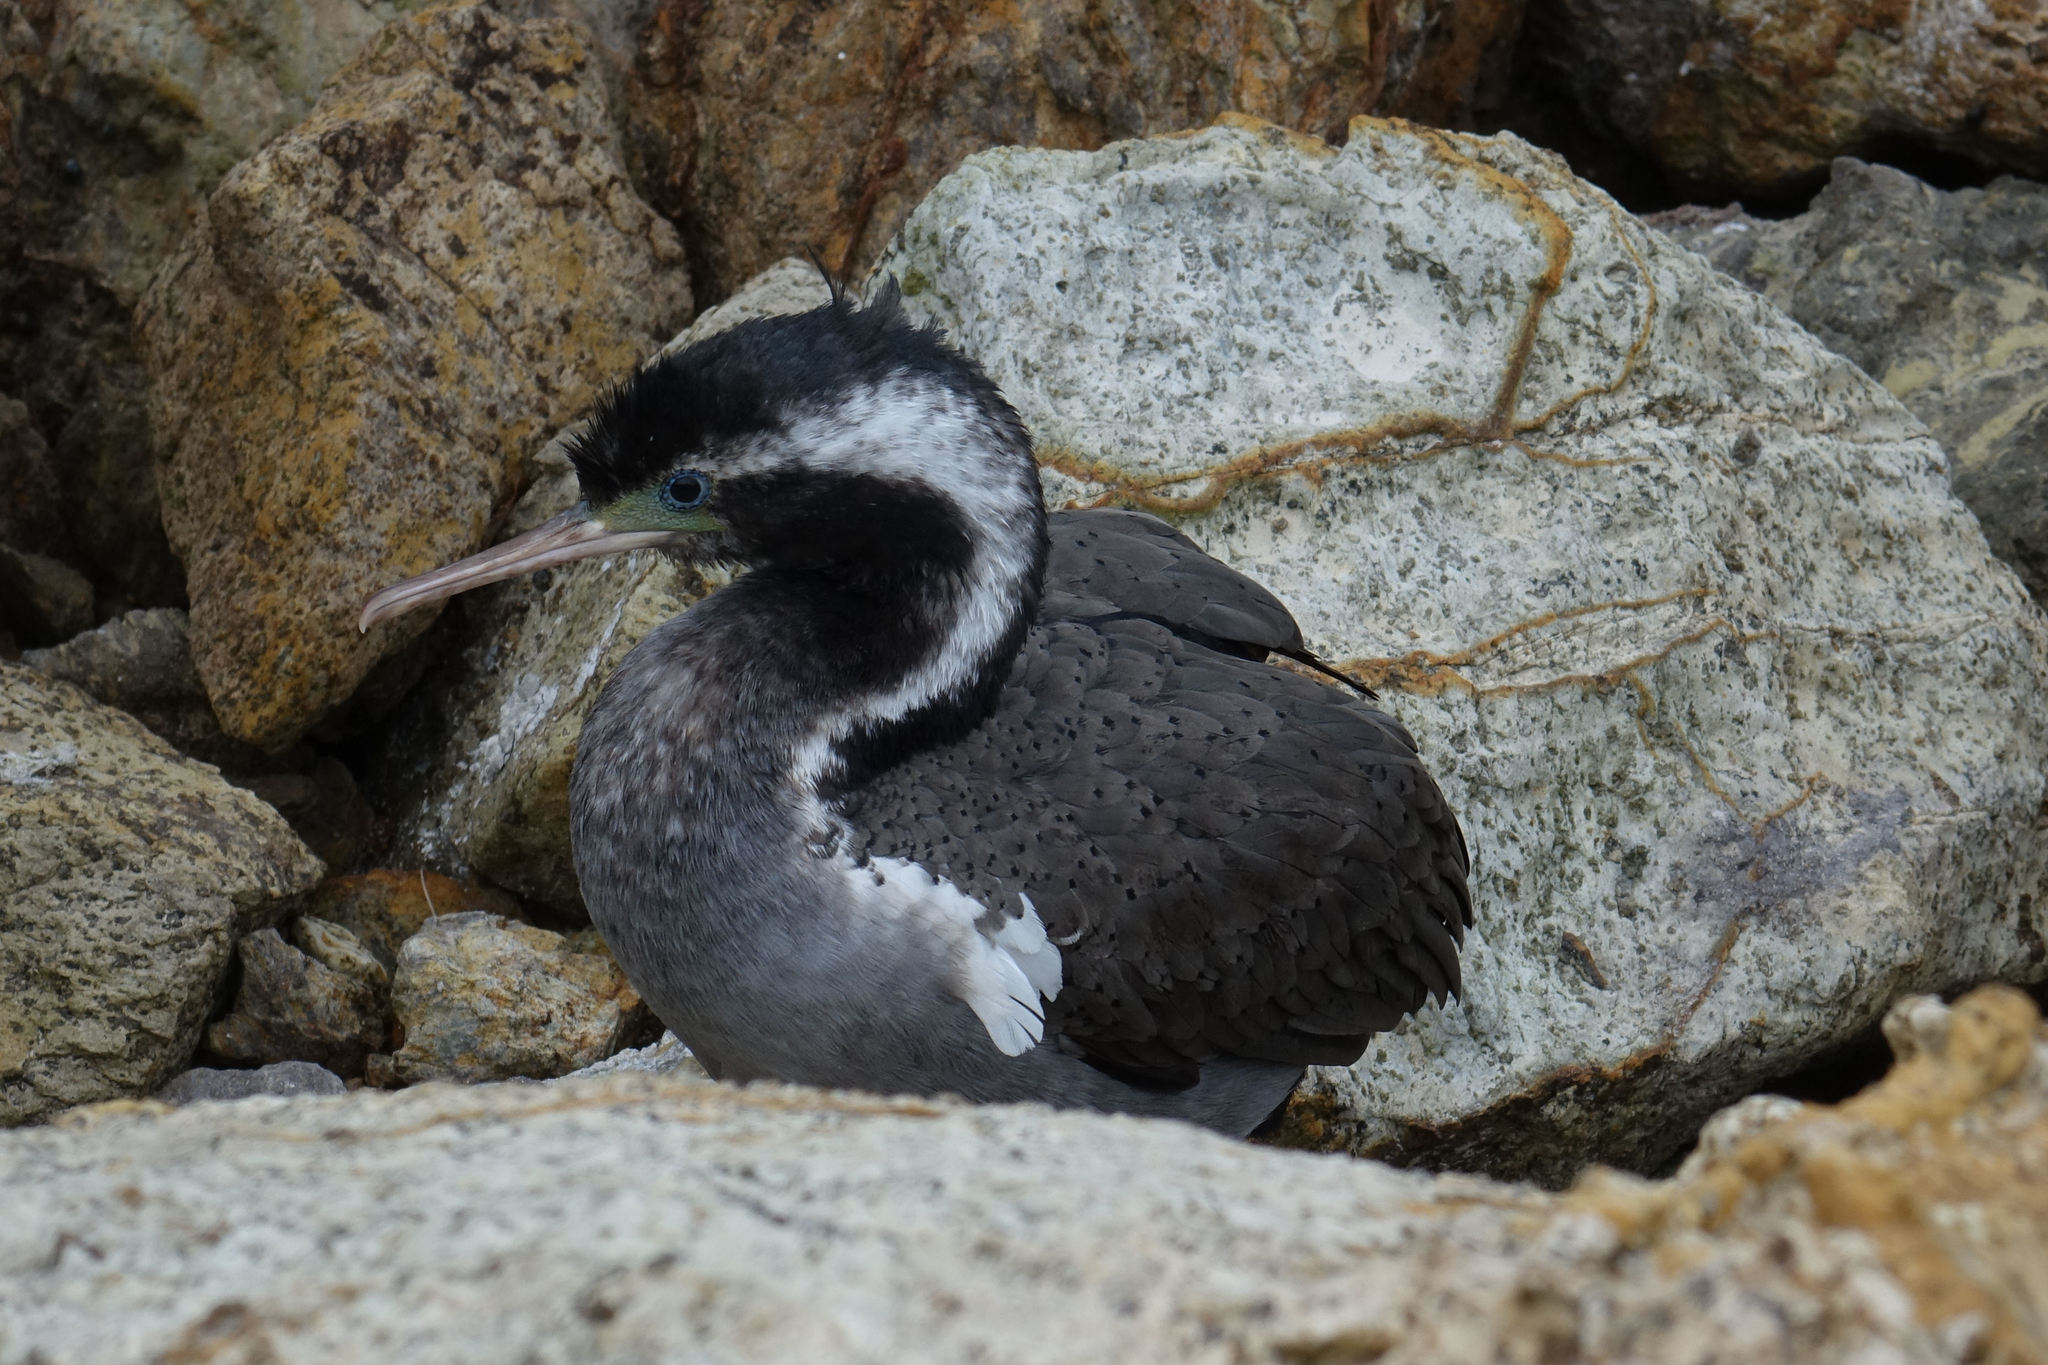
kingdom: Animalia
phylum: Chordata
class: Aves
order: Suliformes
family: Phalacrocoracidae
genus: Phalacrocorax
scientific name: Phalacrocorax punctatus
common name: Spotted shag
